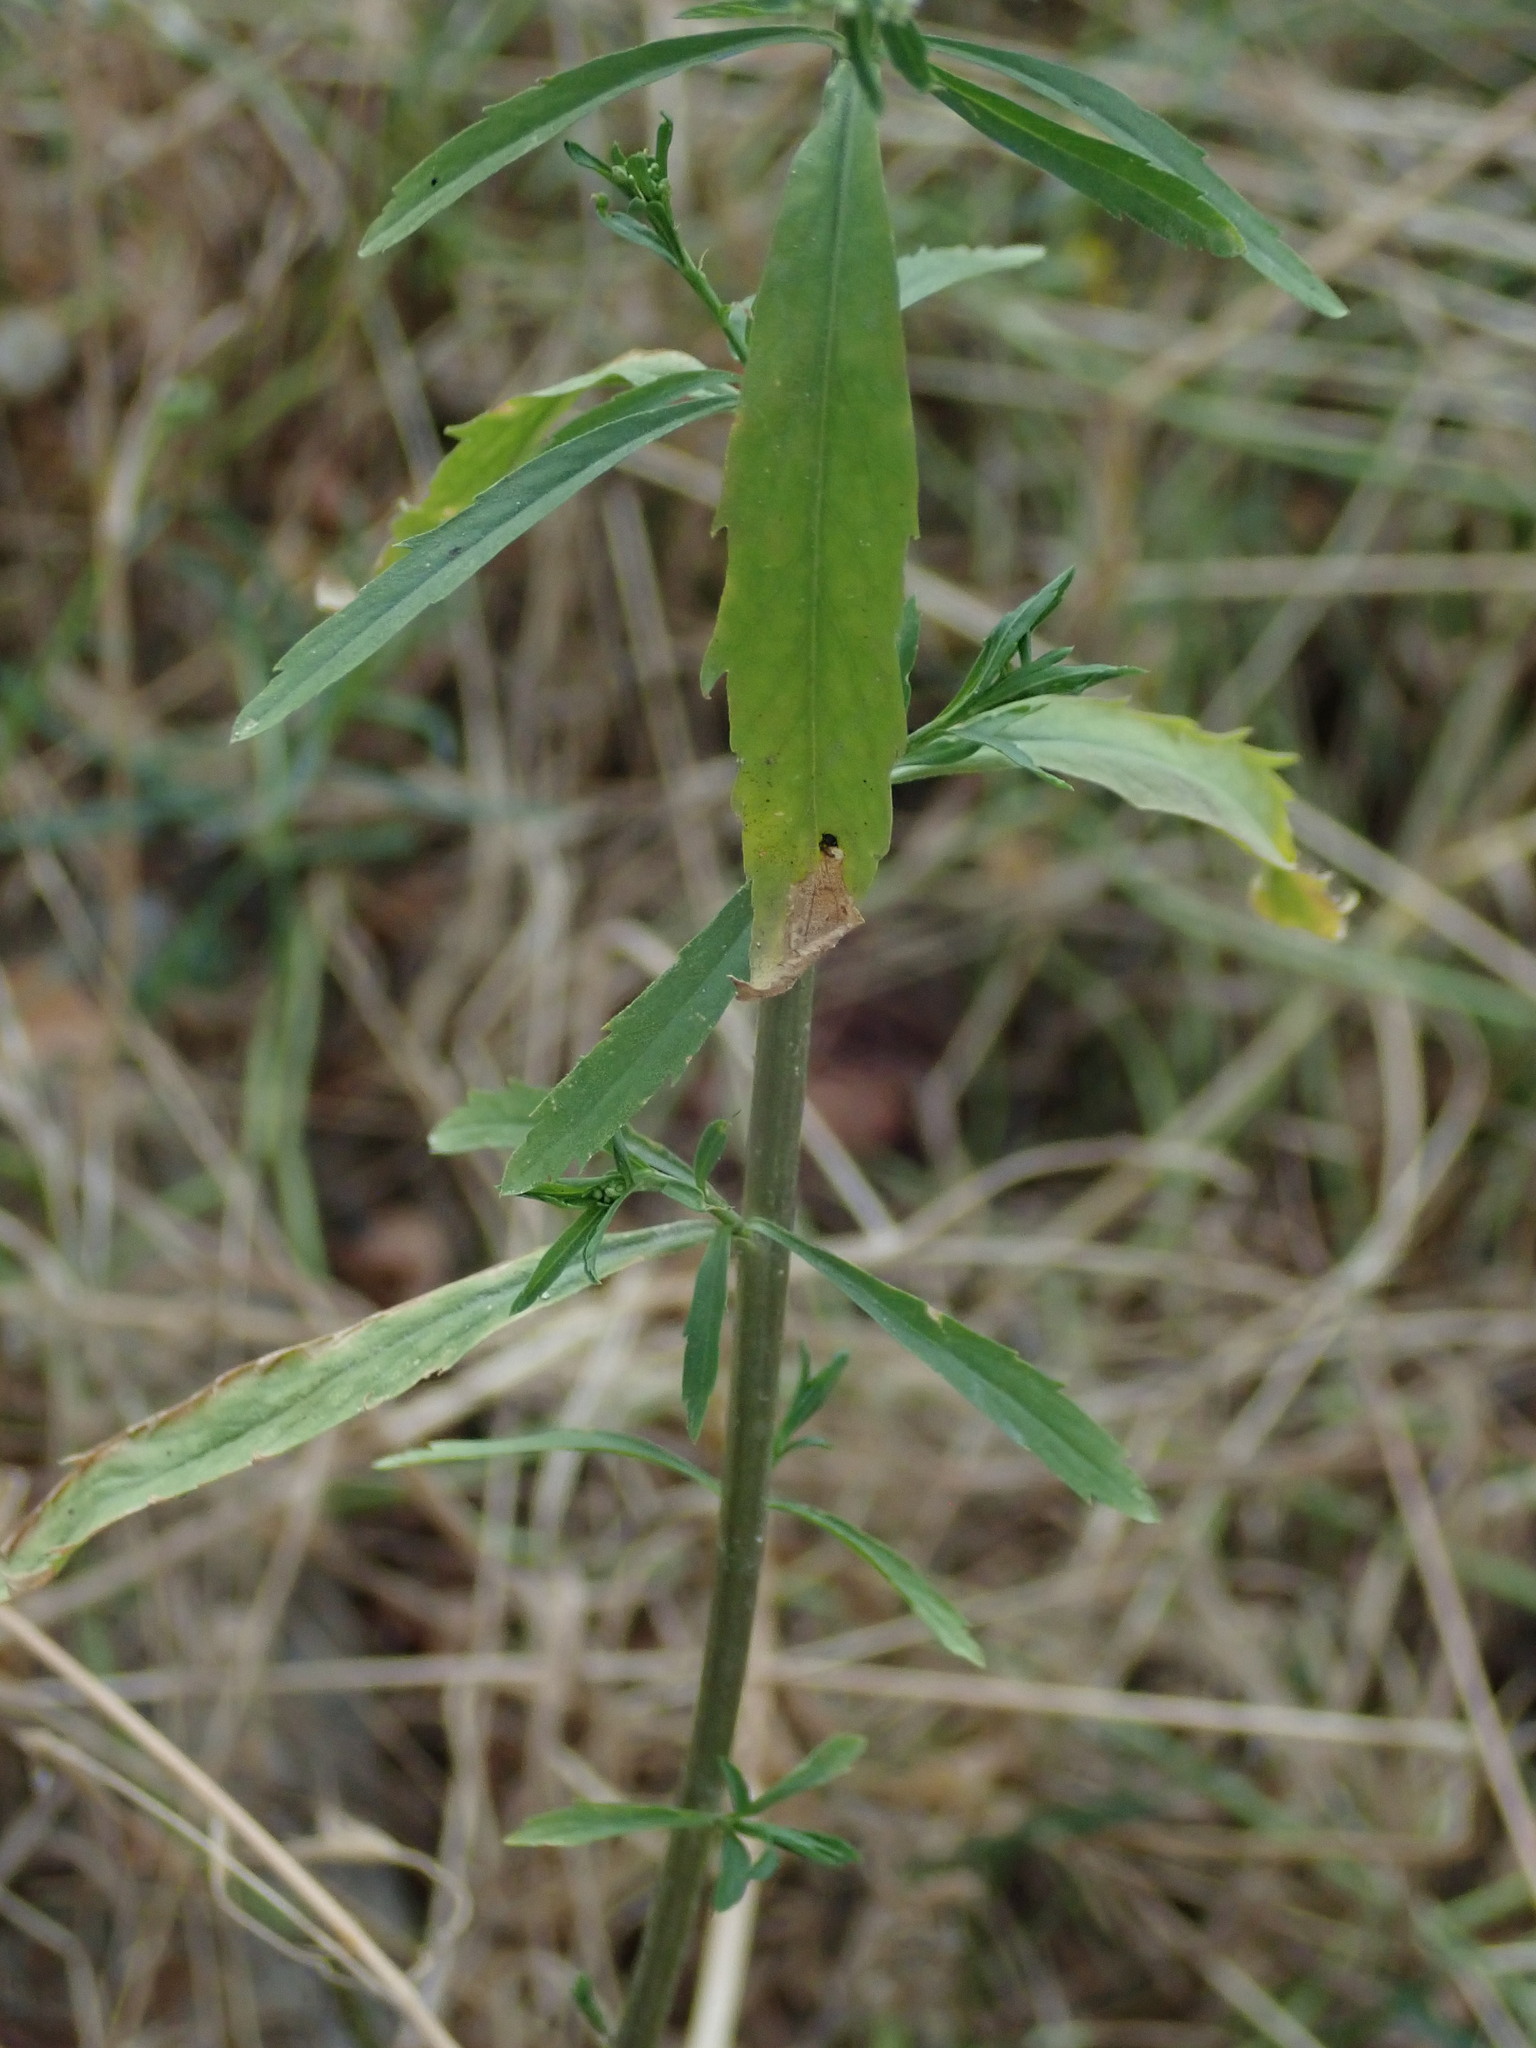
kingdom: Plantae
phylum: Tracheophyta
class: Magnoliopsida
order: Brassicales
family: Brassicaceae
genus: Lepidium
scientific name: Lepidium virginicum
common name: Least pepperwort
